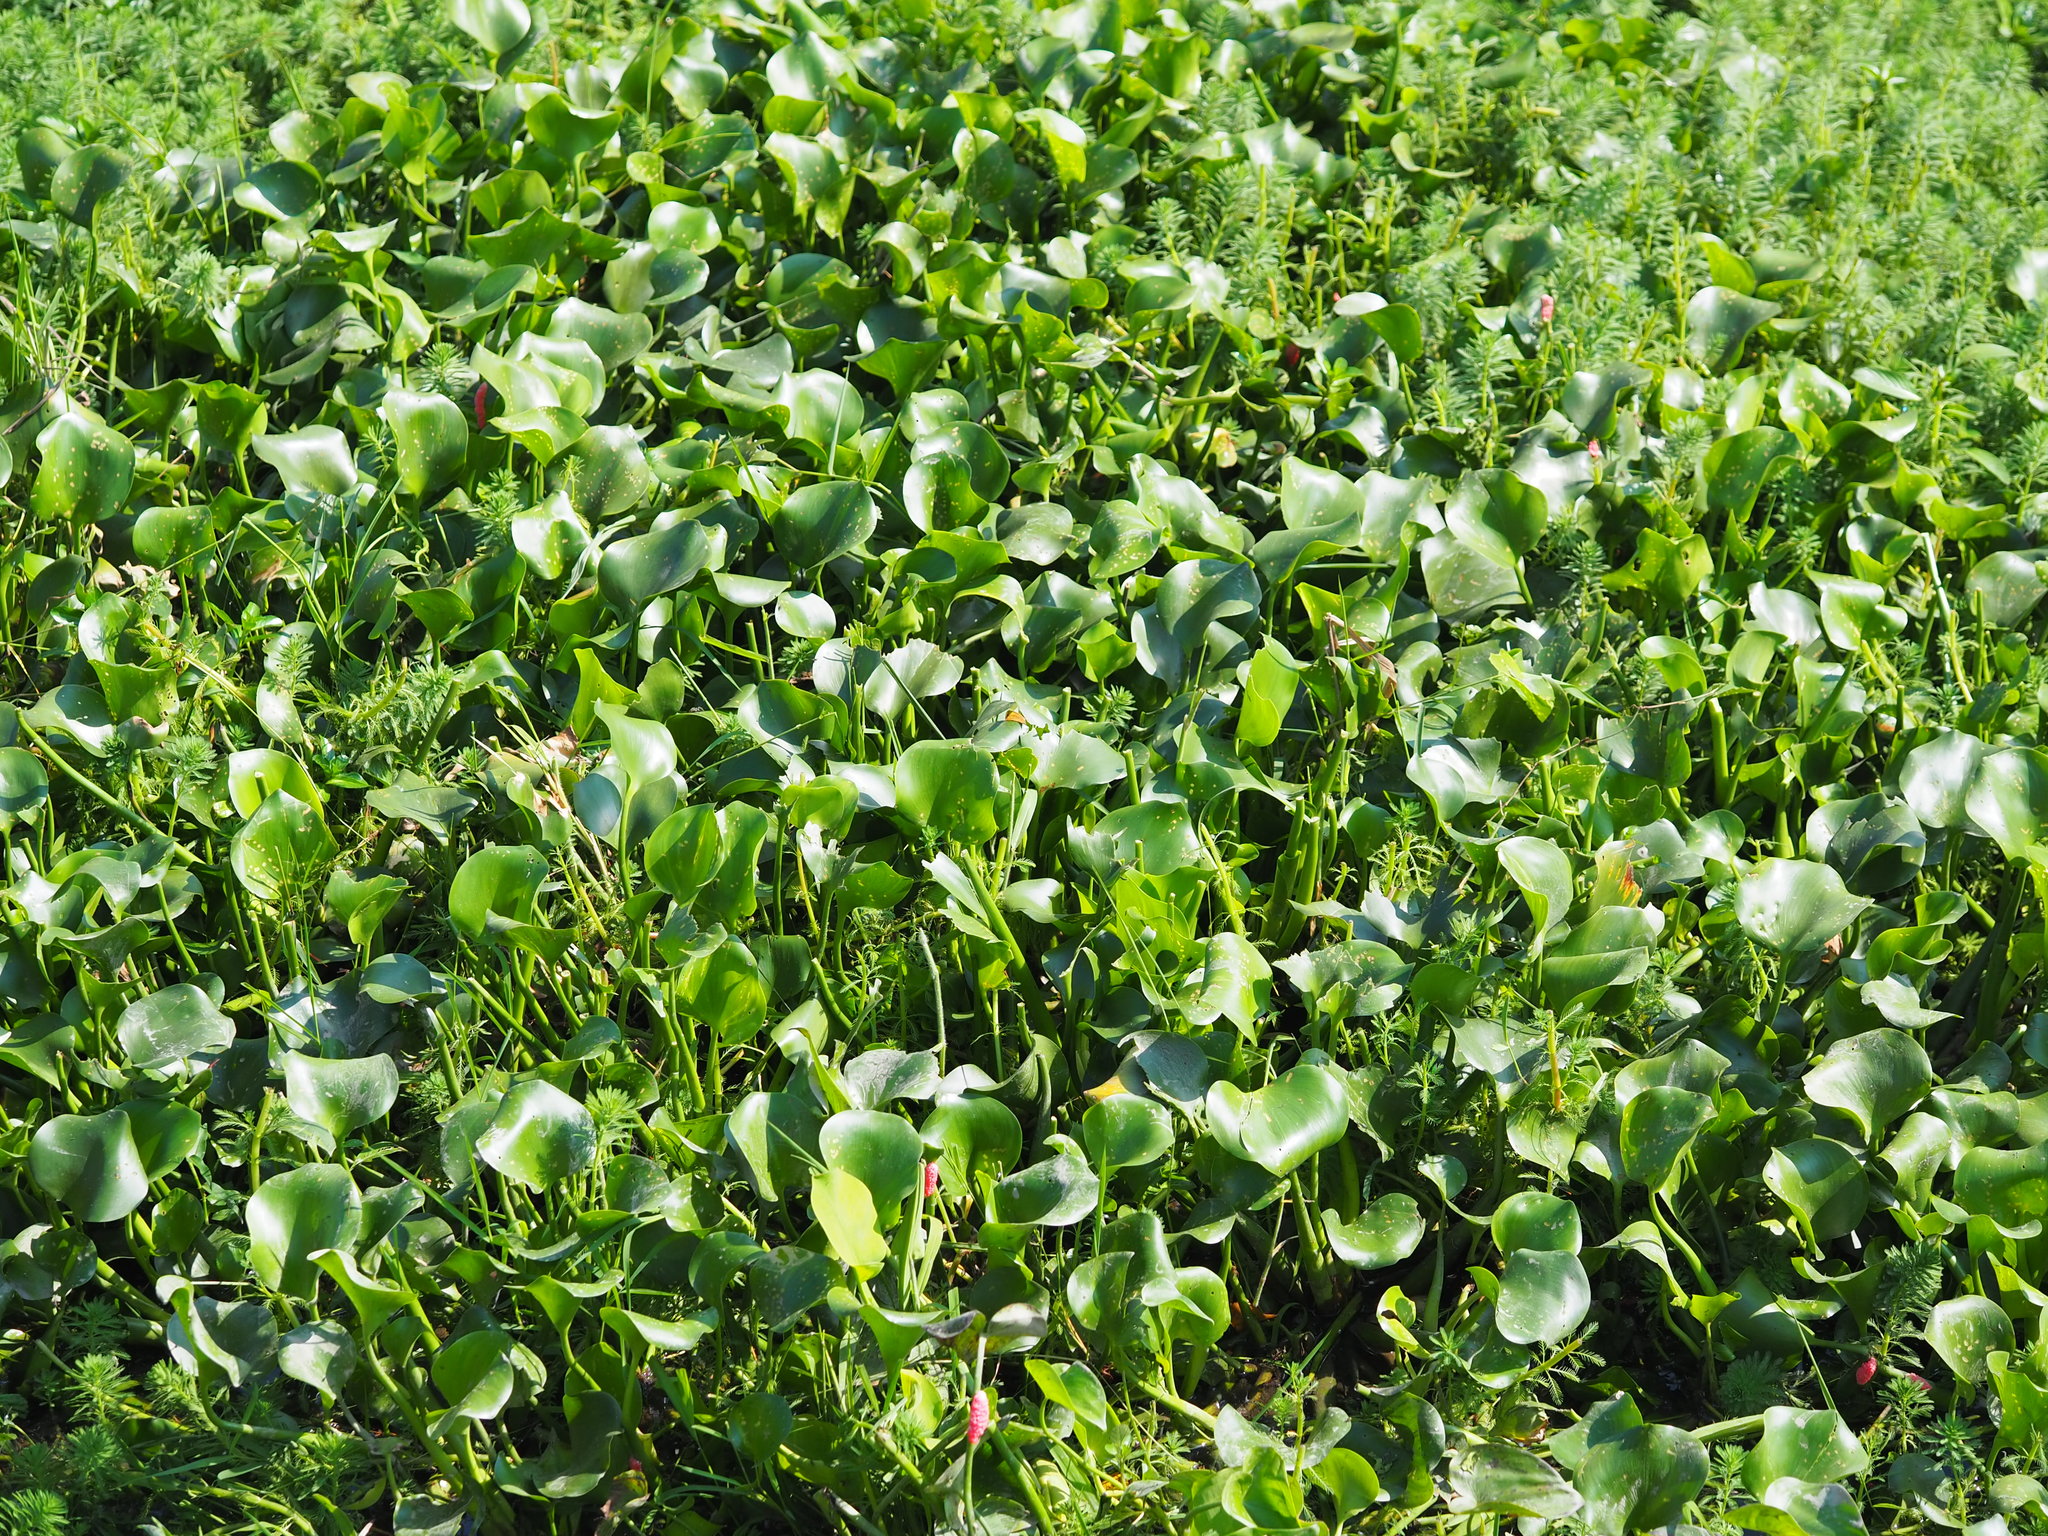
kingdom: Plantae
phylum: Tracheophyta
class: Liliopsida
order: Commelinales
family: Pontederiaceae
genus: Pontederia
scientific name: Pontederia crassipes
